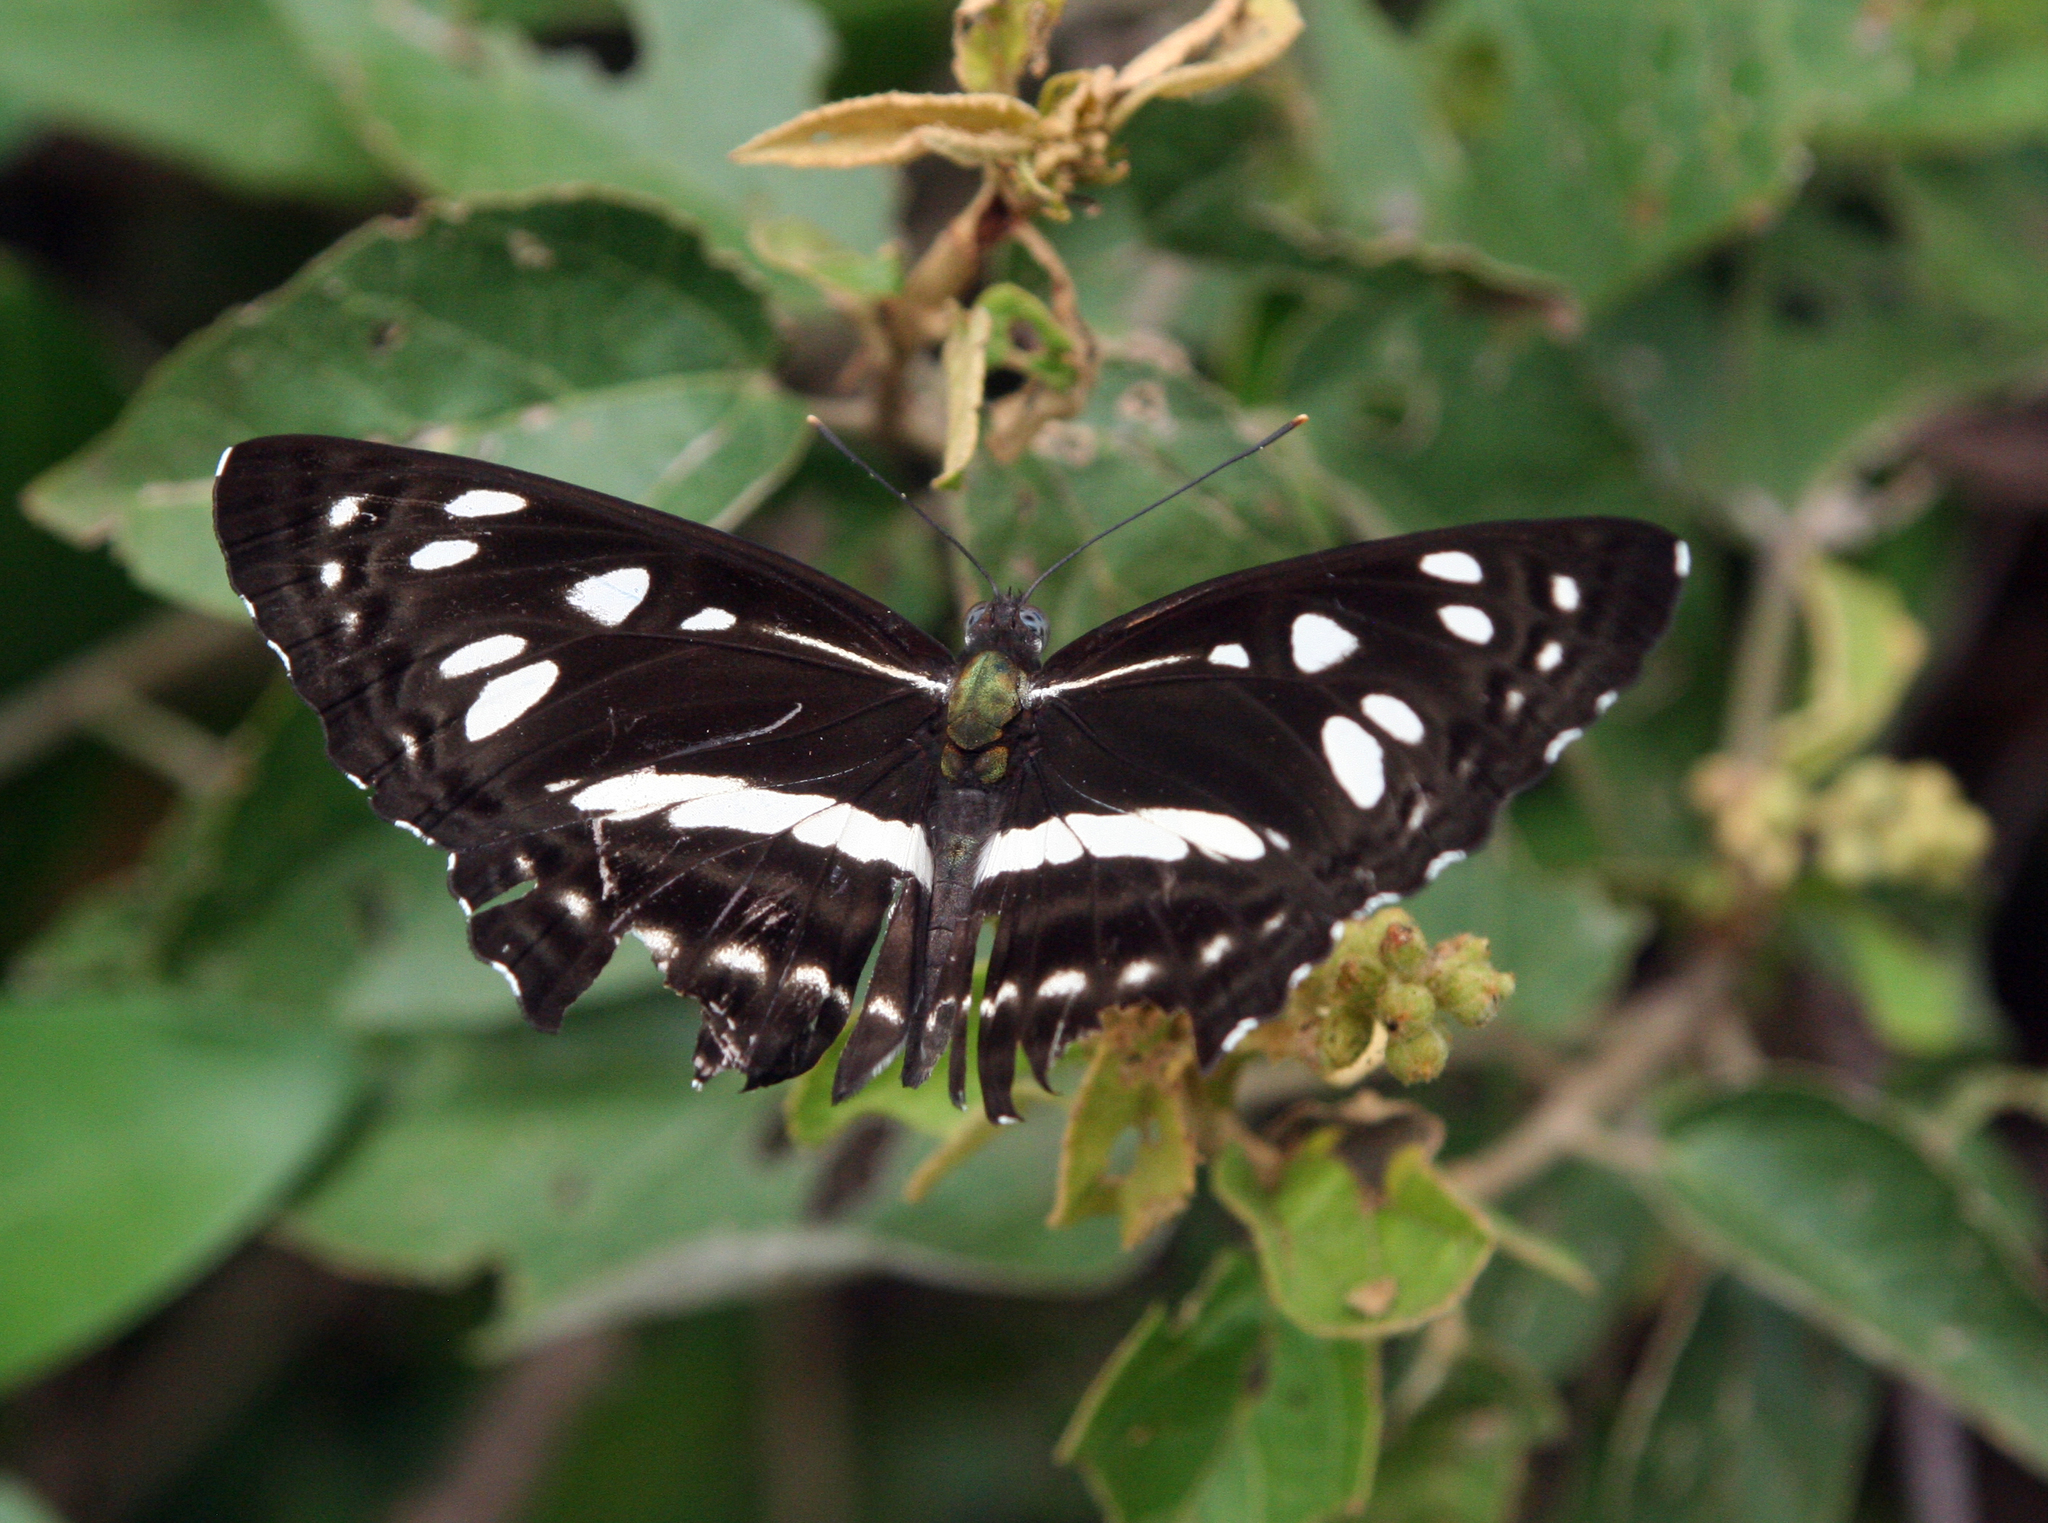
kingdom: Animalia
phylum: Arthropoda
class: Insecta
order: Lepidoptera
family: Nymphalidae
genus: Phaedyma
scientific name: Phaedyma columella
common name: Short banded sailer
